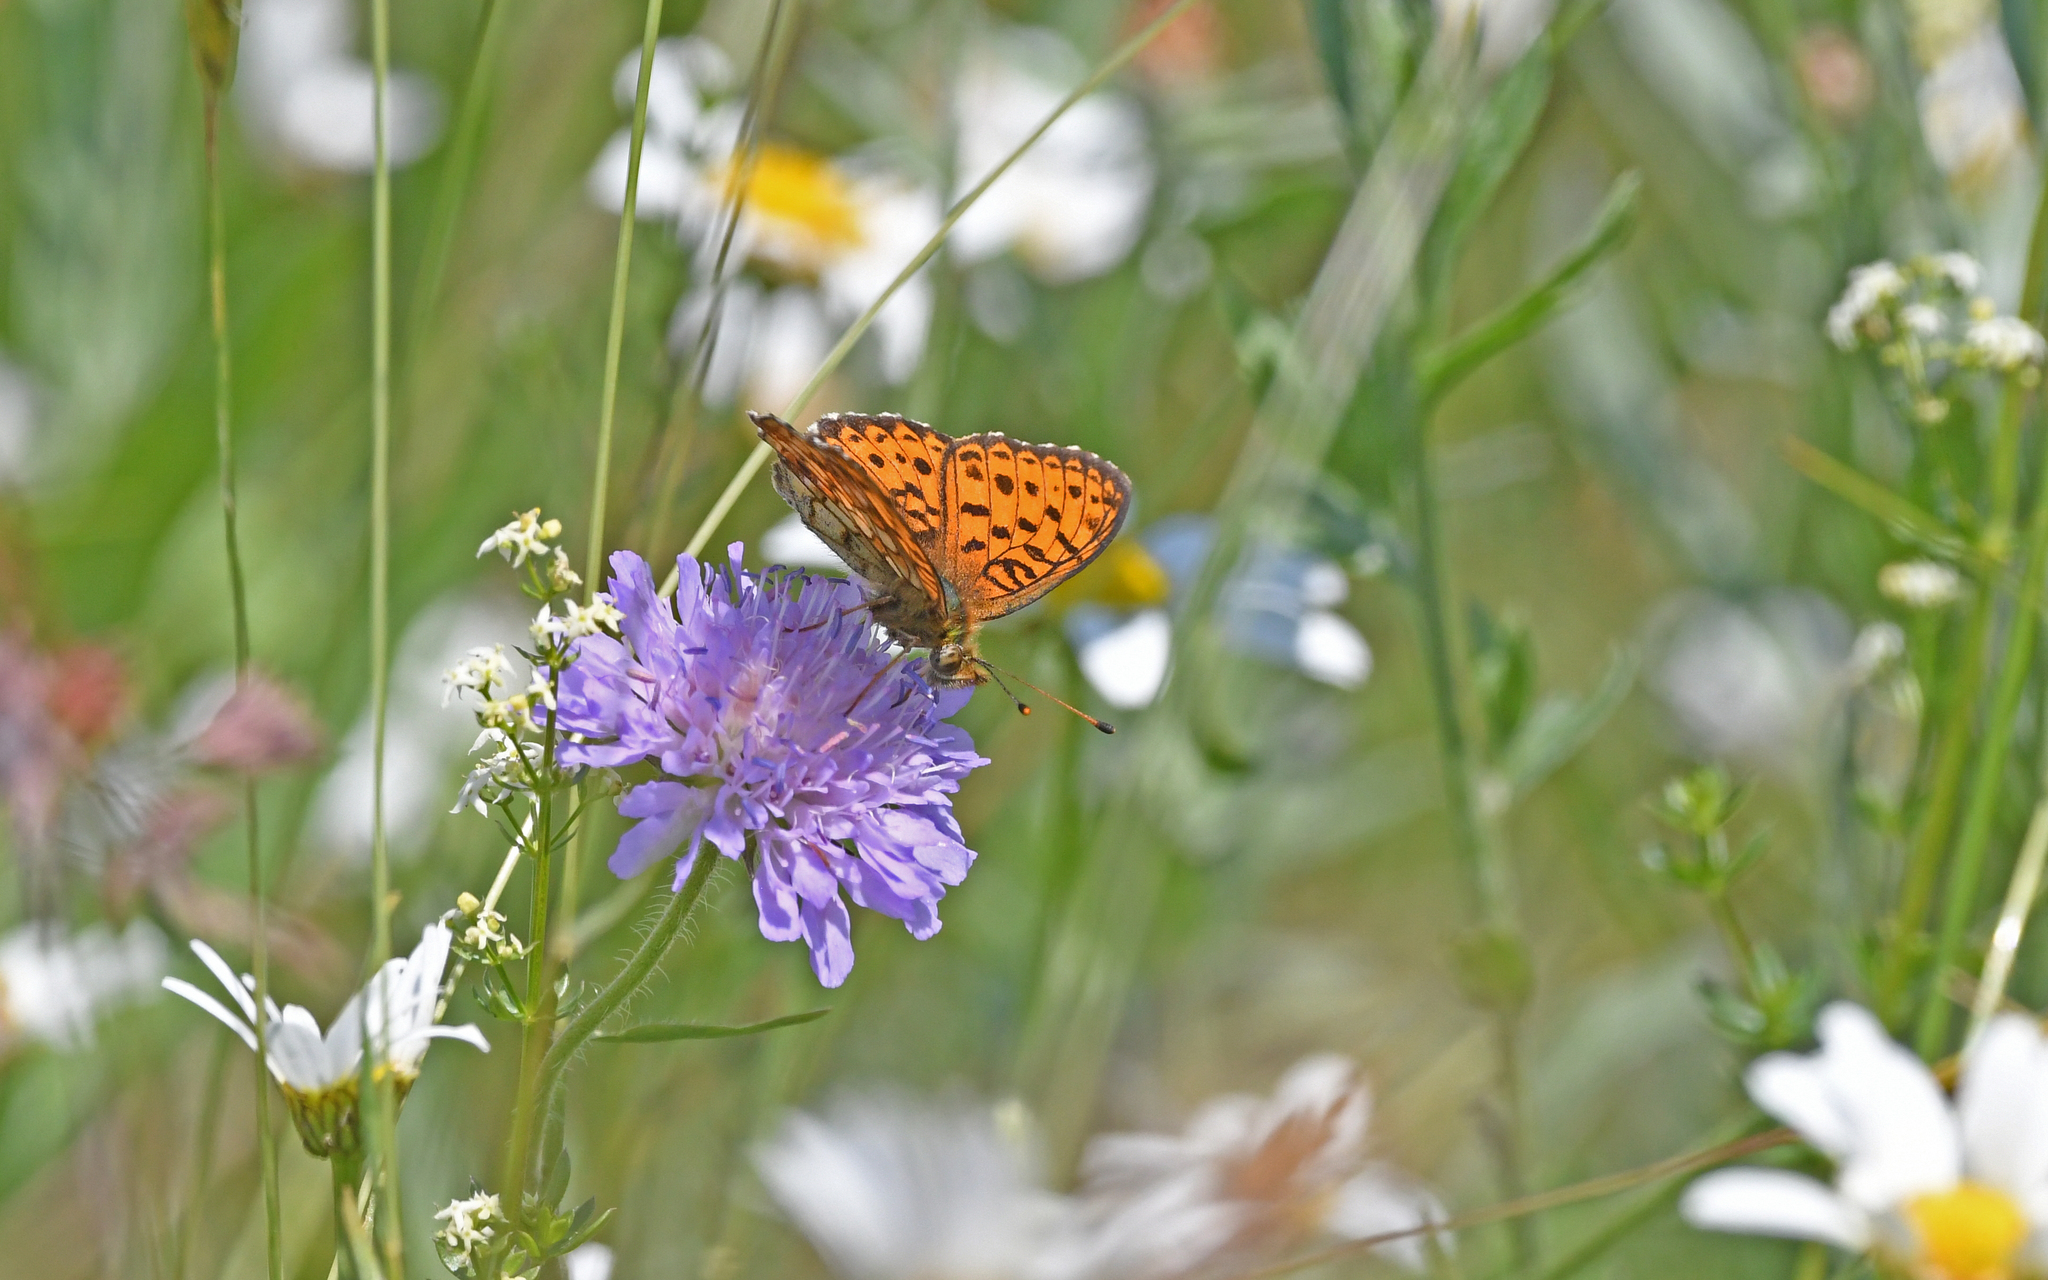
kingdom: Animalia
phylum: Arthropoda
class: Insecta
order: Lepidoptera
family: Nymphalidae
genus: Brenthis
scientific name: Brenthis ino
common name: Lesser marbled fritillary
